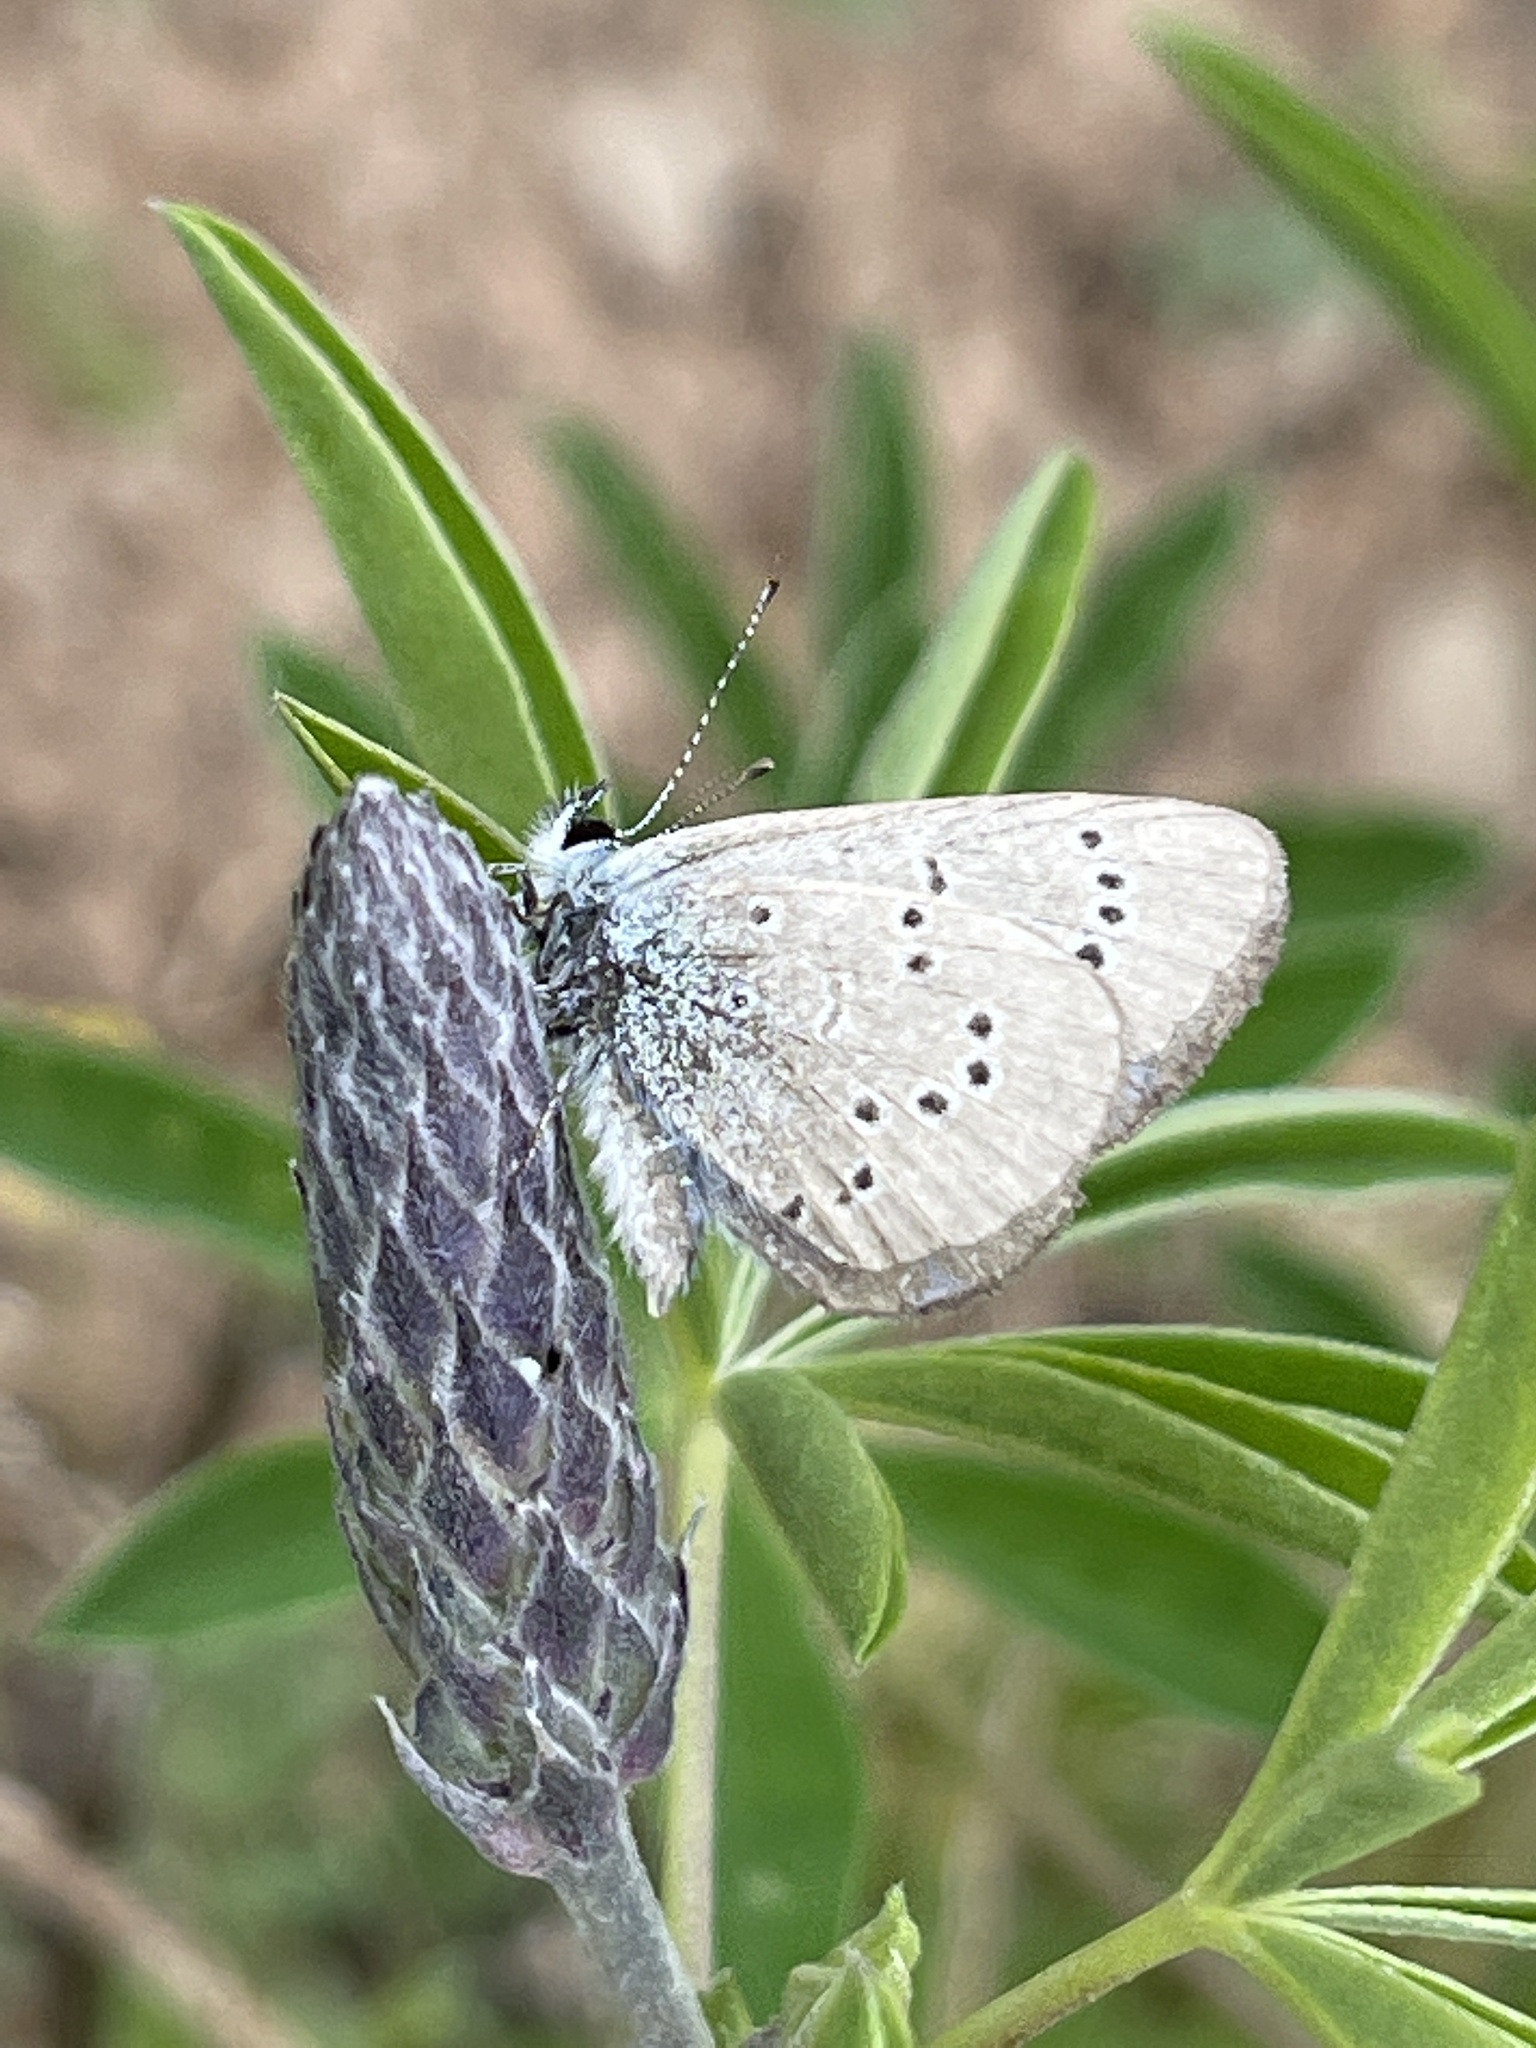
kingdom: Animalia
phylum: Arthropoda
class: Insecta
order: Lepidoptera
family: Lycaenidae
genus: Glaucopsyche
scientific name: Glaucopsyche lygdamus
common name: Silvery blue
